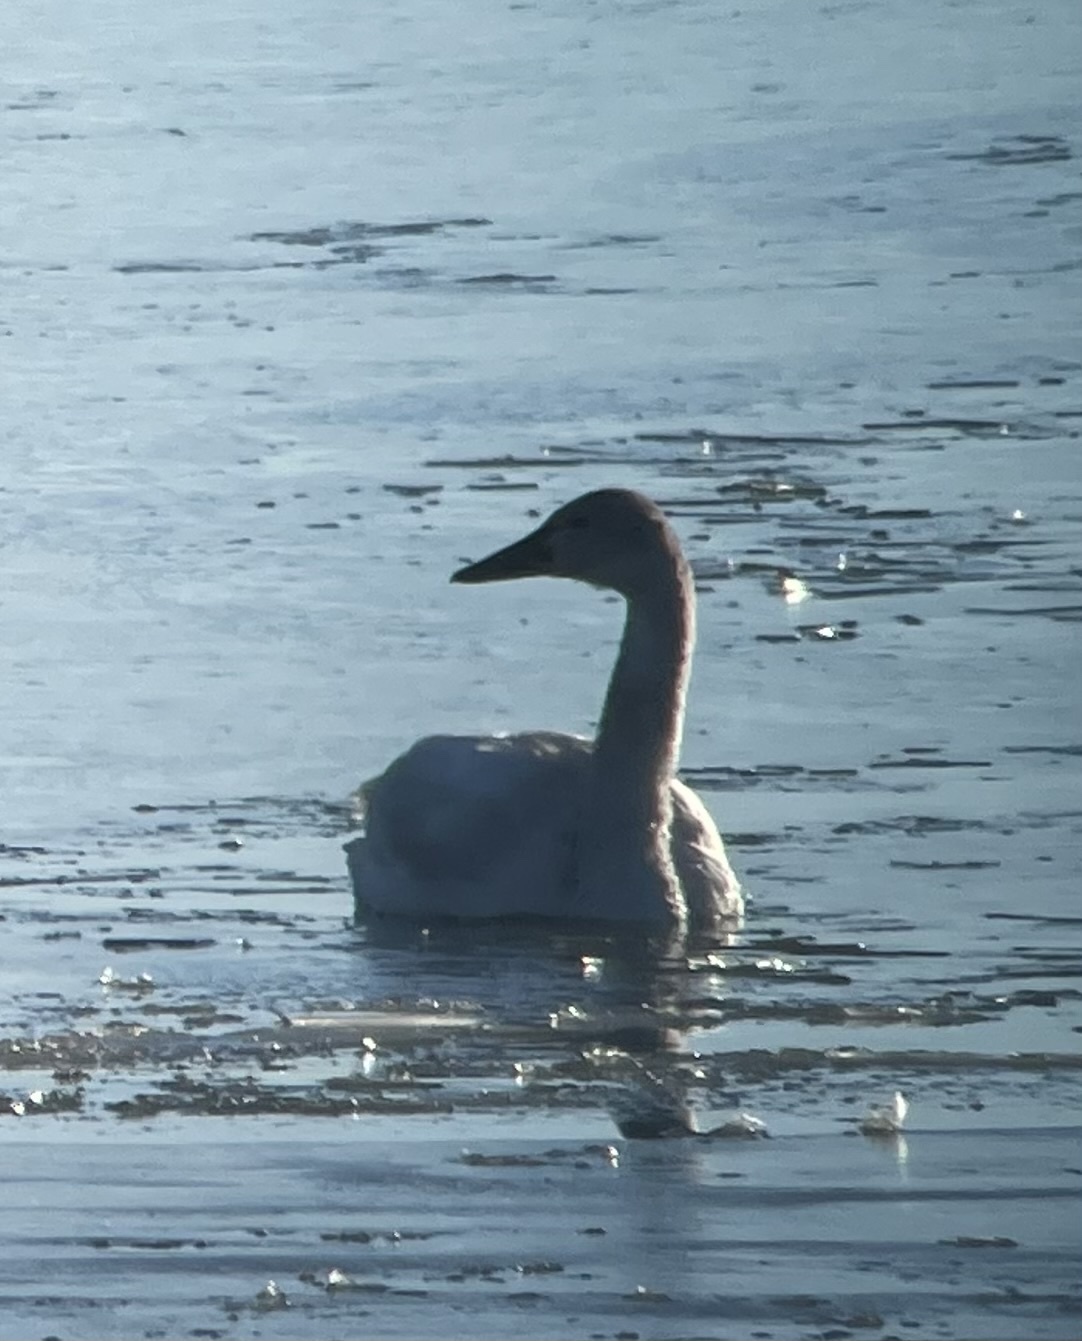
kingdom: Animalia
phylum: Chordata
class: Aves
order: Anseriformes
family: Anatidae
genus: Cygnus
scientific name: Cygnus columbianus
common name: Tundra swan
